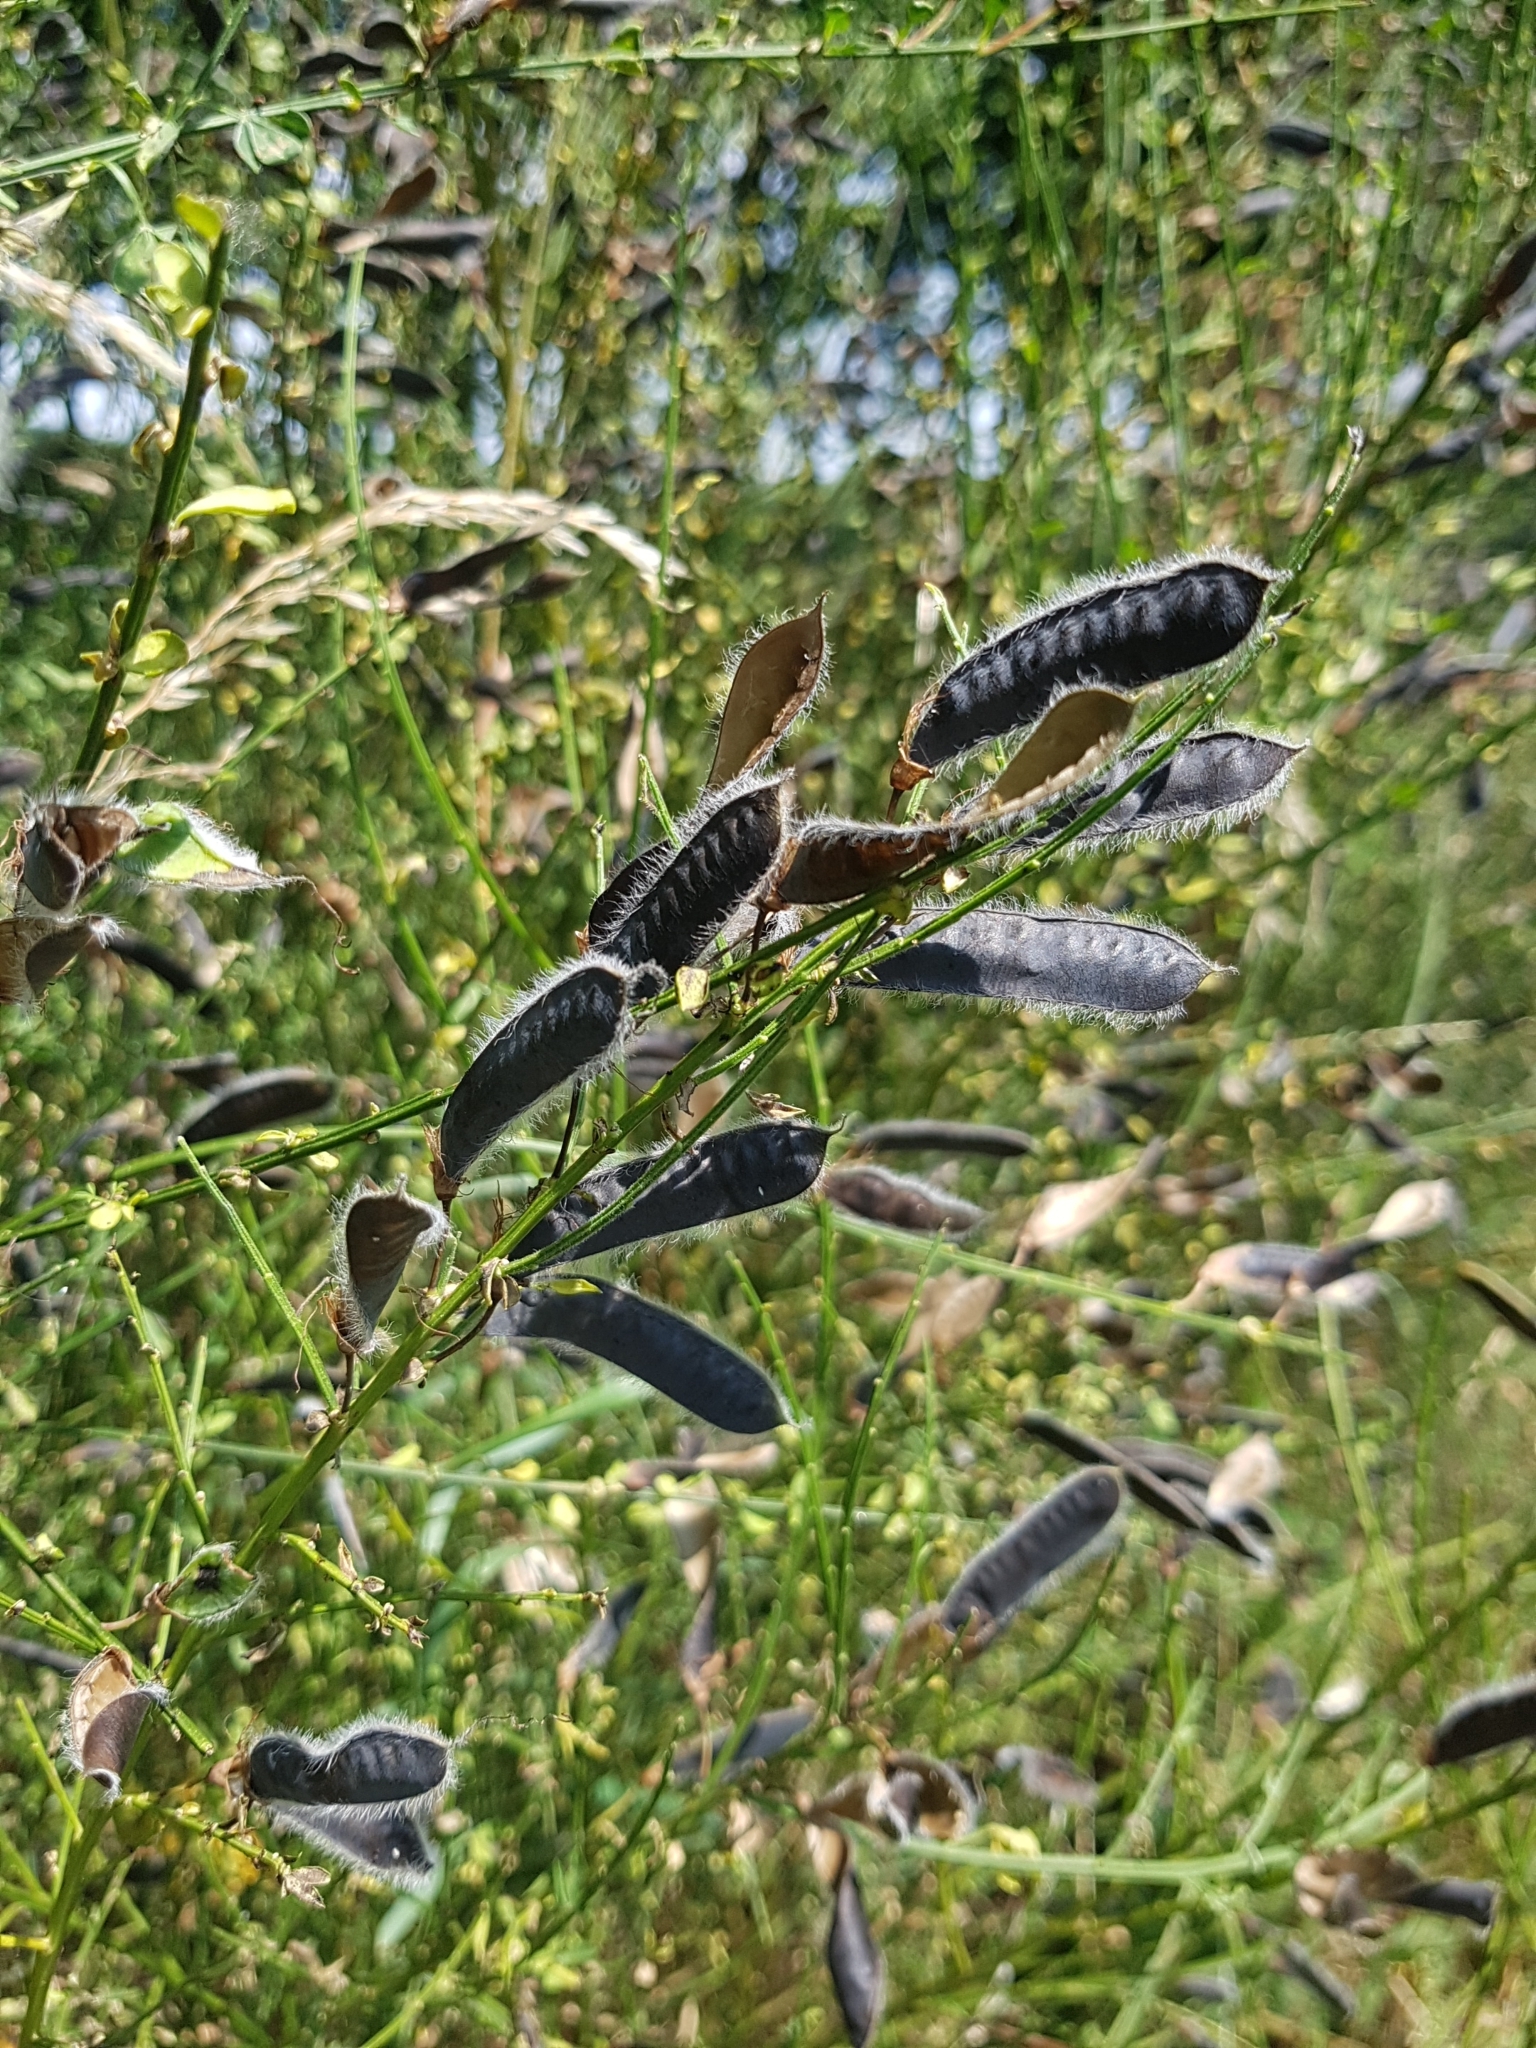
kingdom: Plantae
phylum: Tracheophyta
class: Magnoliopsida
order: Fabales
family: Fabaceae
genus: Cytisus
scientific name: Cytisus scoparius
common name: Scotch broom
